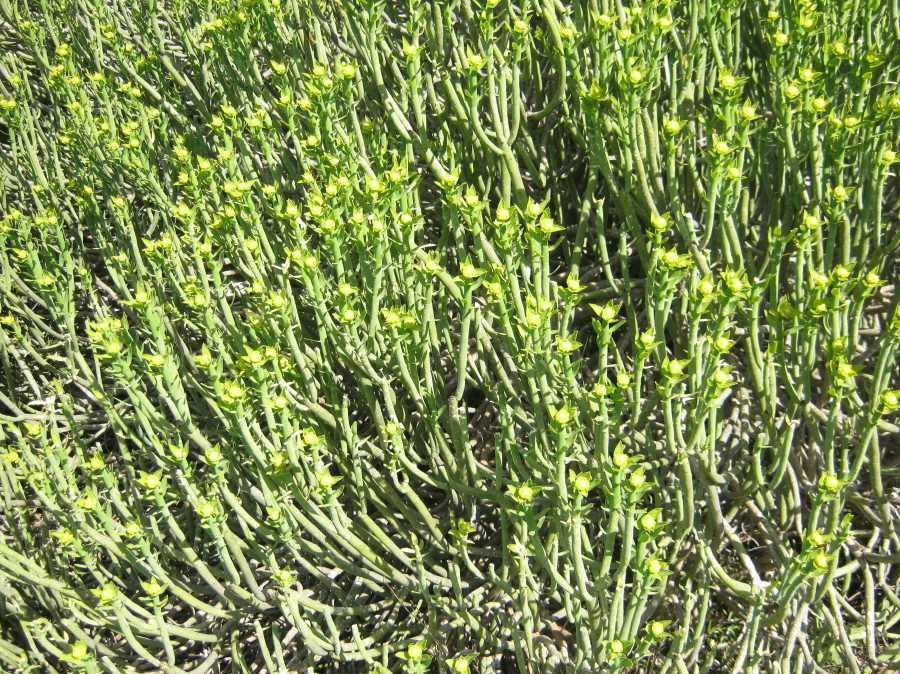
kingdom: Plantae
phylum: Tracheophyta
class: Magnoliopsida
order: Malpighiales
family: Euphorbiaceae
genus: Euphorbia
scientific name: Euphorbia mauritanica
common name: Jackal's-food
